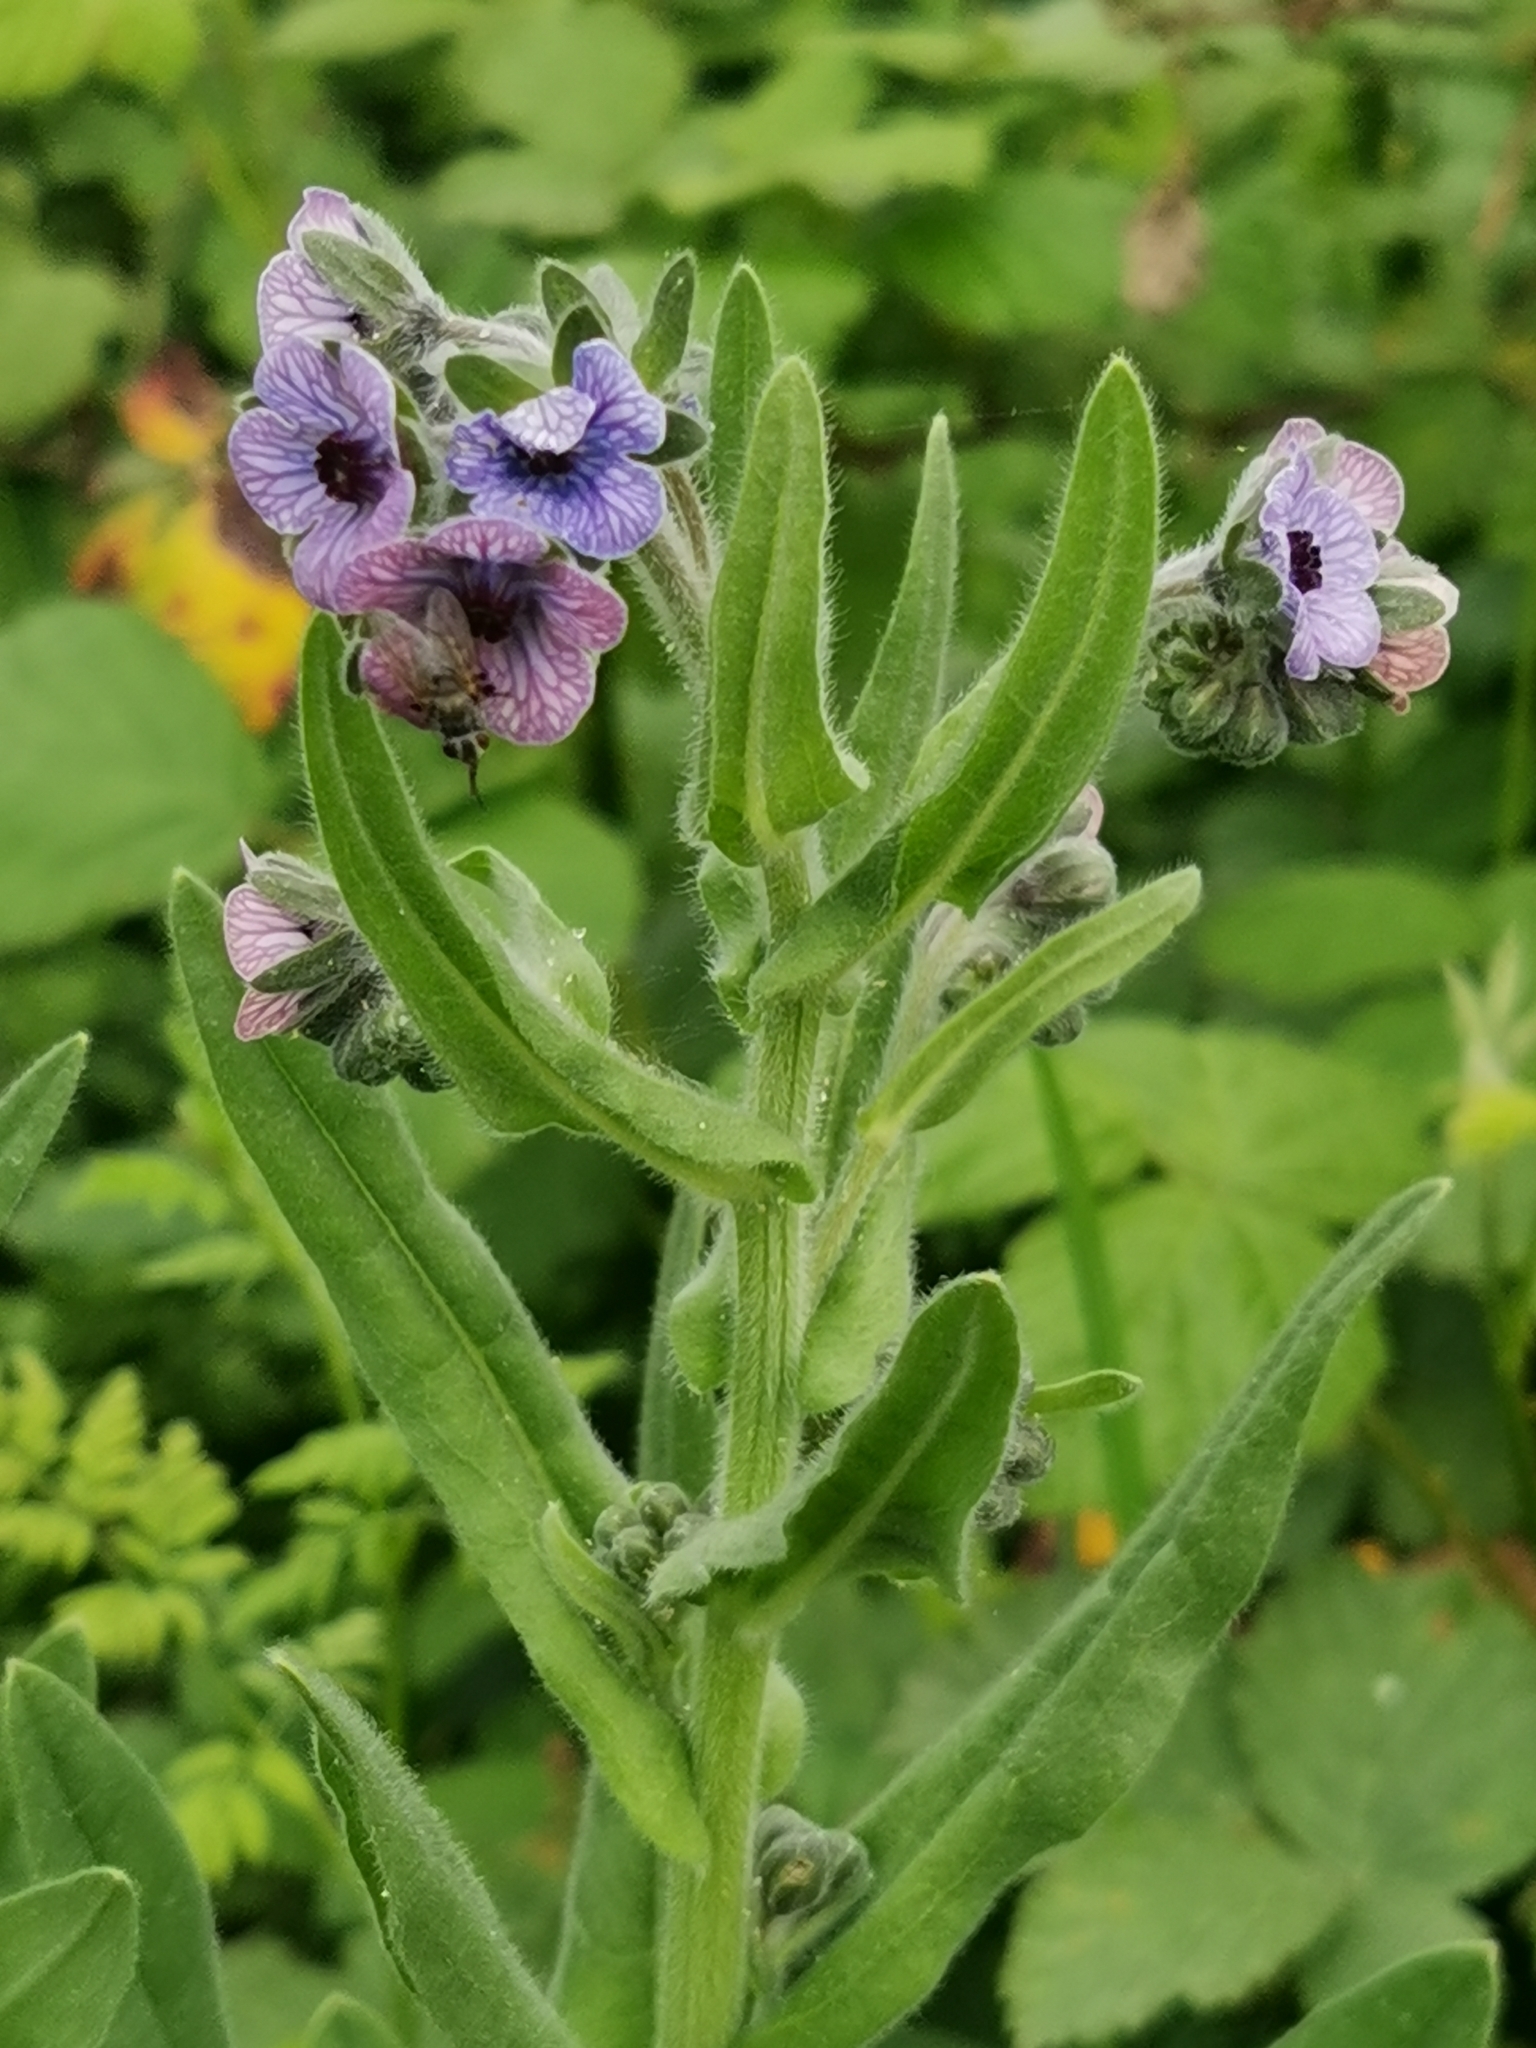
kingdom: Plantae
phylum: Tracheophyta
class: Magnoliopsida
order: Boraginales
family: Boraginaceae
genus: Cynoglossum
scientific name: Cynoglossum creticum
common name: Blue hound's tongue
